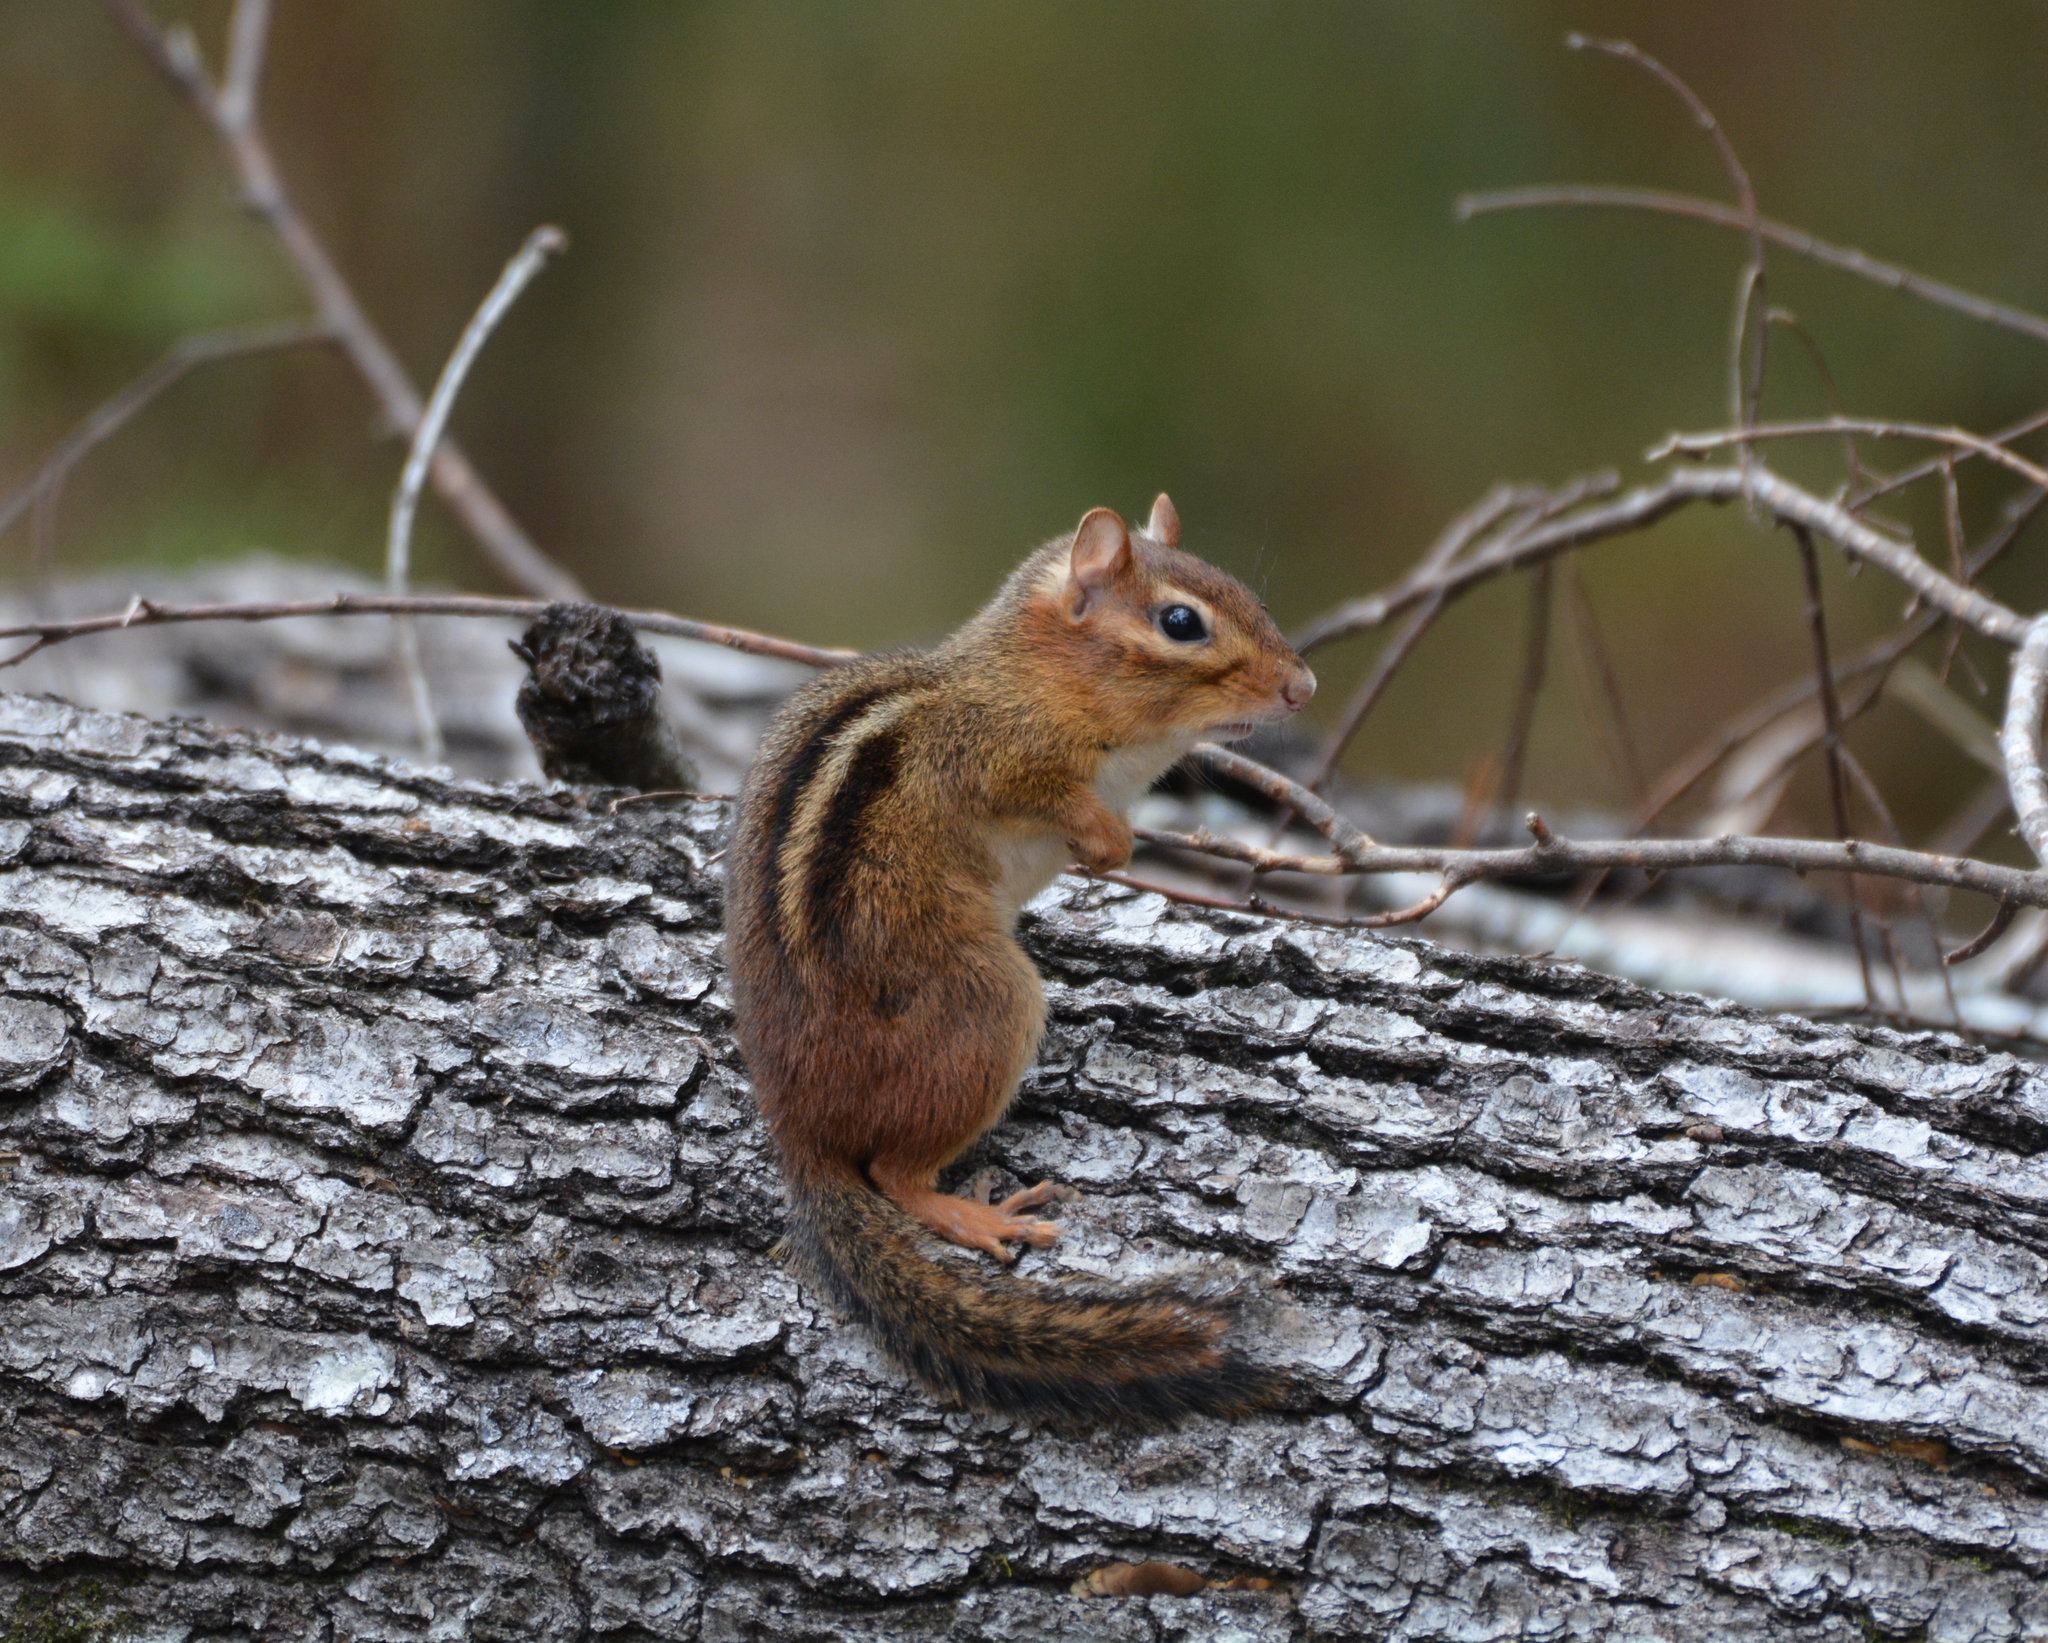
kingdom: Animalia
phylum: Chordata
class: Mammalia
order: Rodentia
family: Sciuridae
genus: Tamias
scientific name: Tamias striatus
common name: Eastern chipmunk
